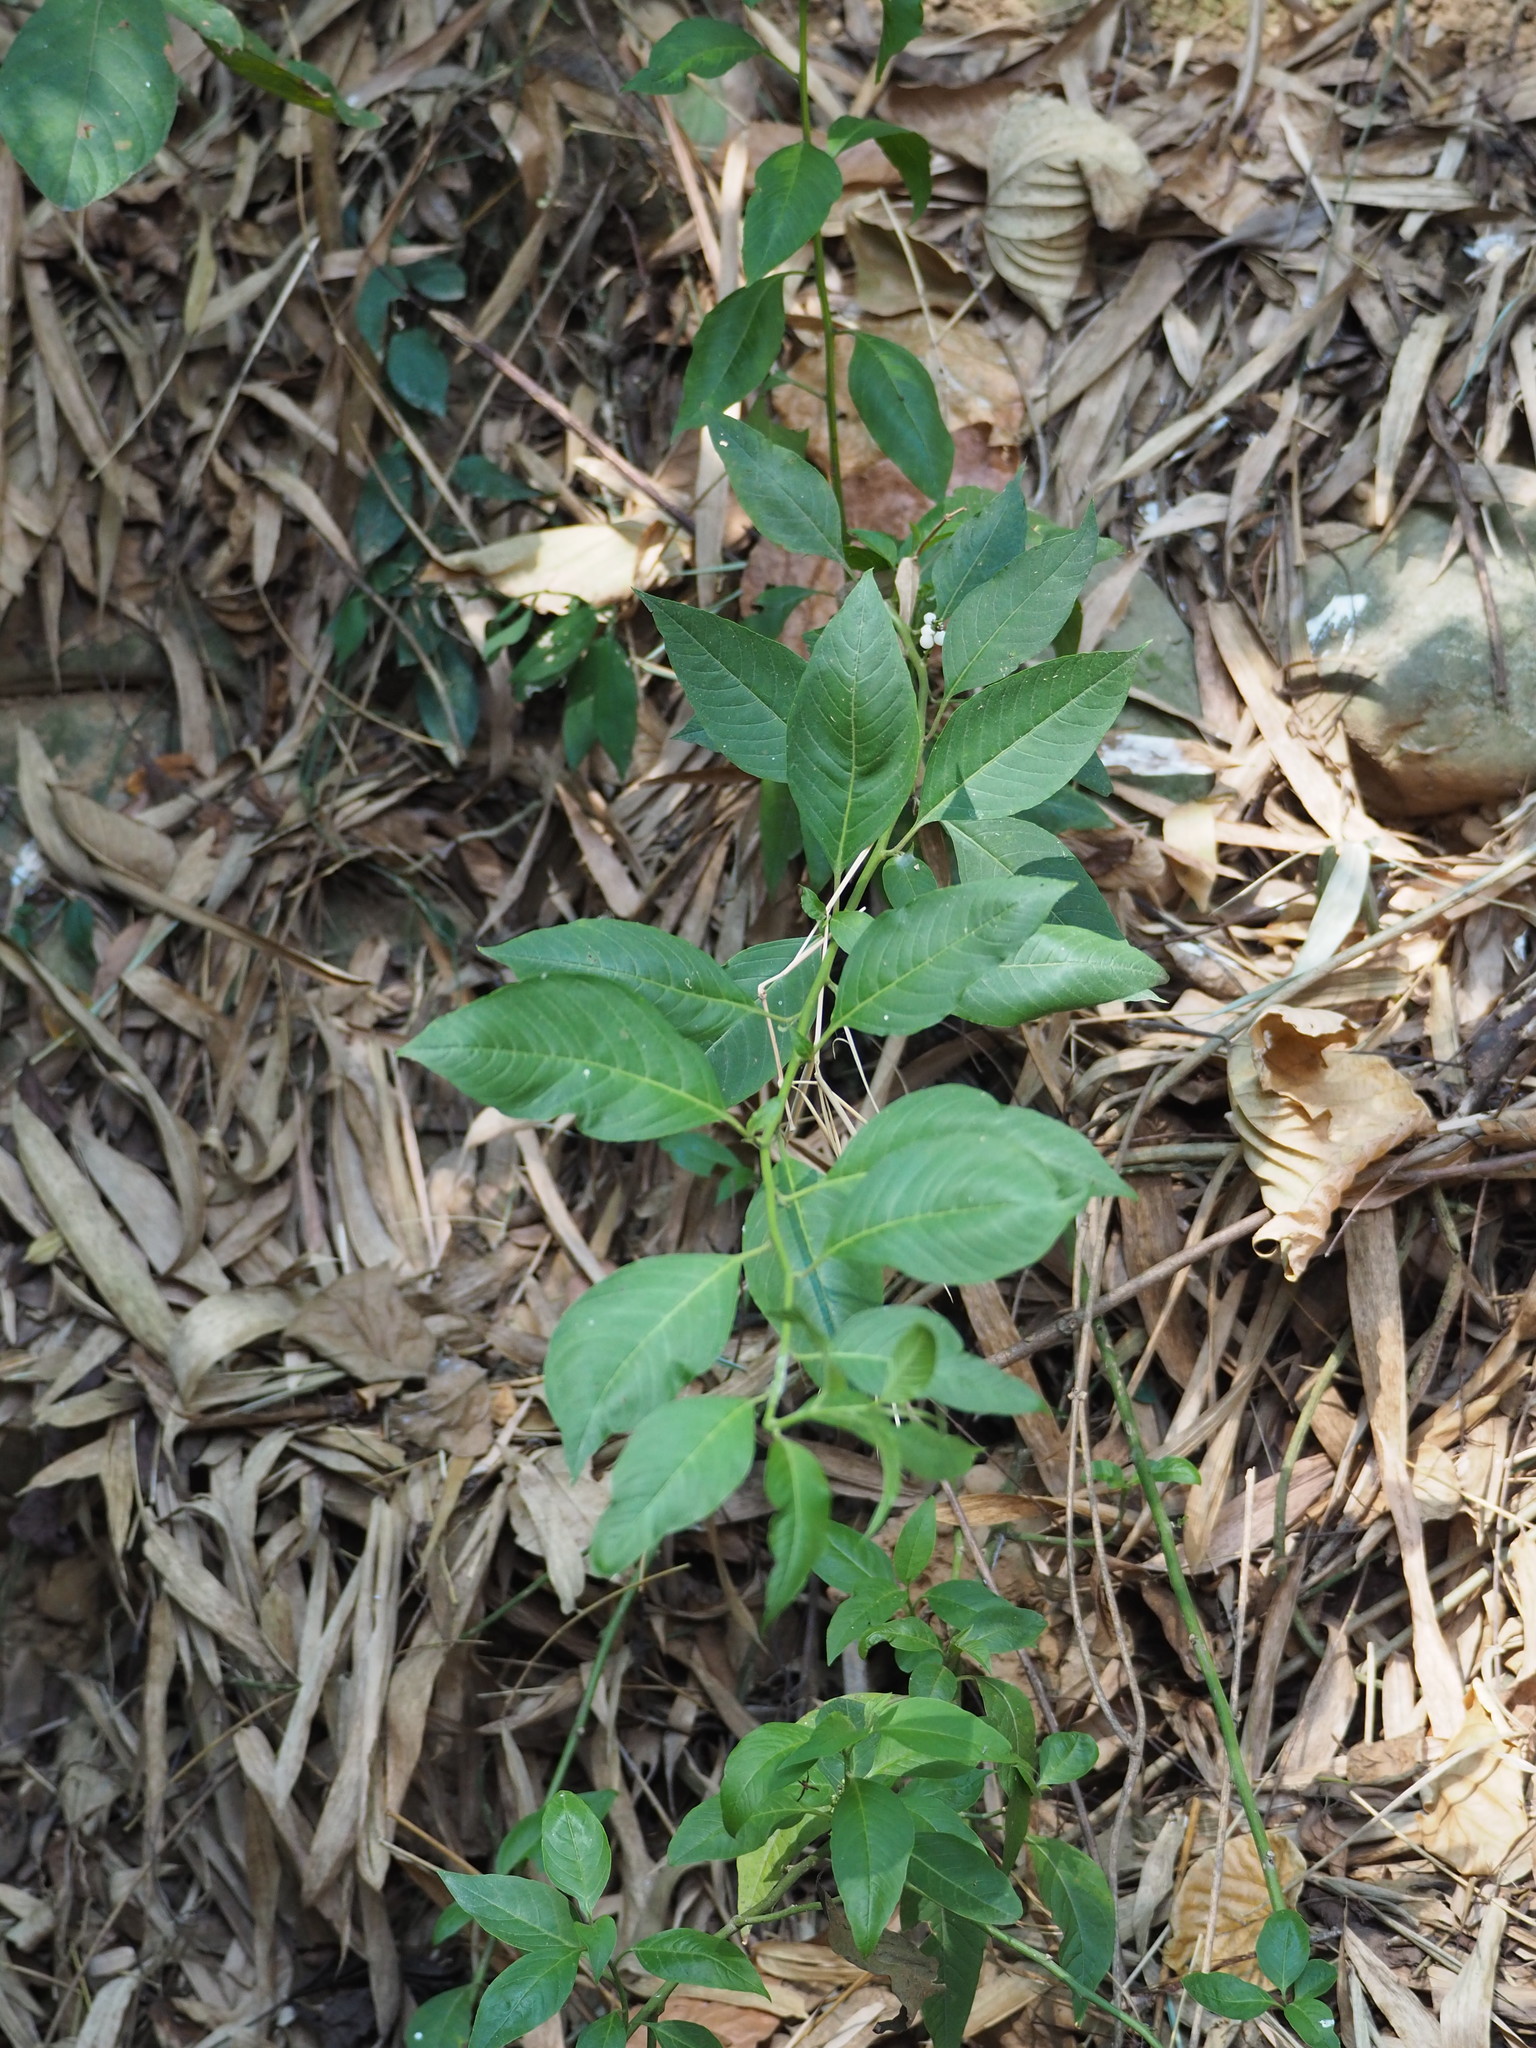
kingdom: Plantae
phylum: Tracheophyta
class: Magnoliopsida
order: Caryophyllales
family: Amaranthaceae
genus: Deeringia
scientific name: Deeringia polysperma
